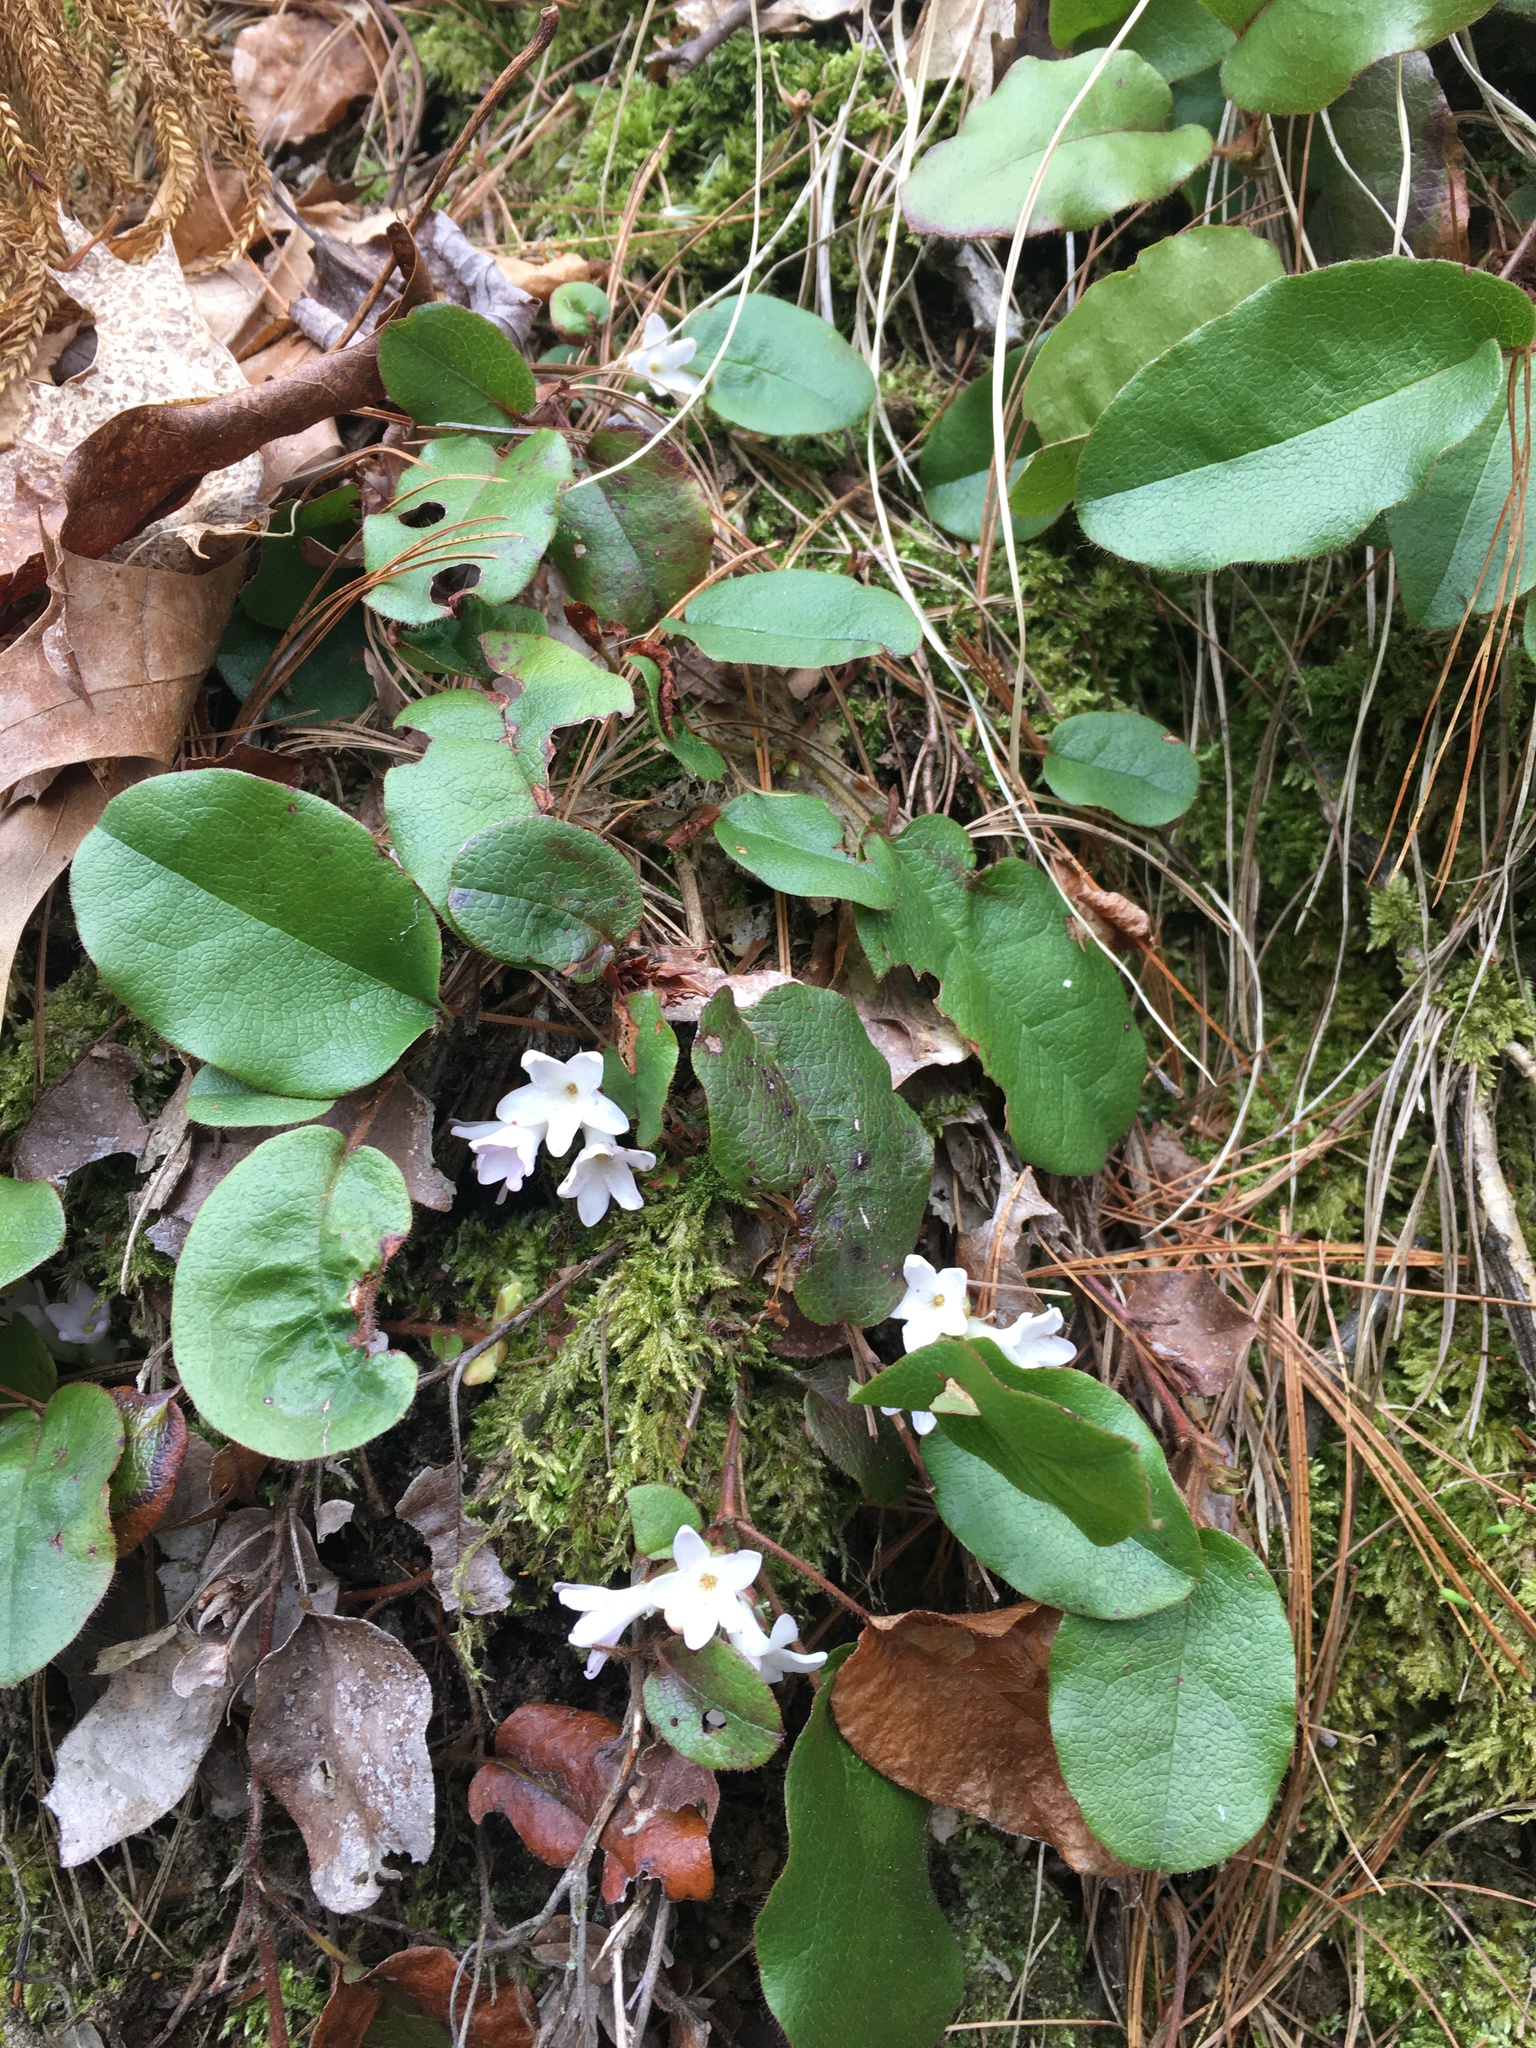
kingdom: Plantae
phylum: Tracheophyta
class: Magnoliopsida
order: Ericales
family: Ericaceae
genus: Epigaea
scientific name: Epigaea repens
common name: Gravelroot
